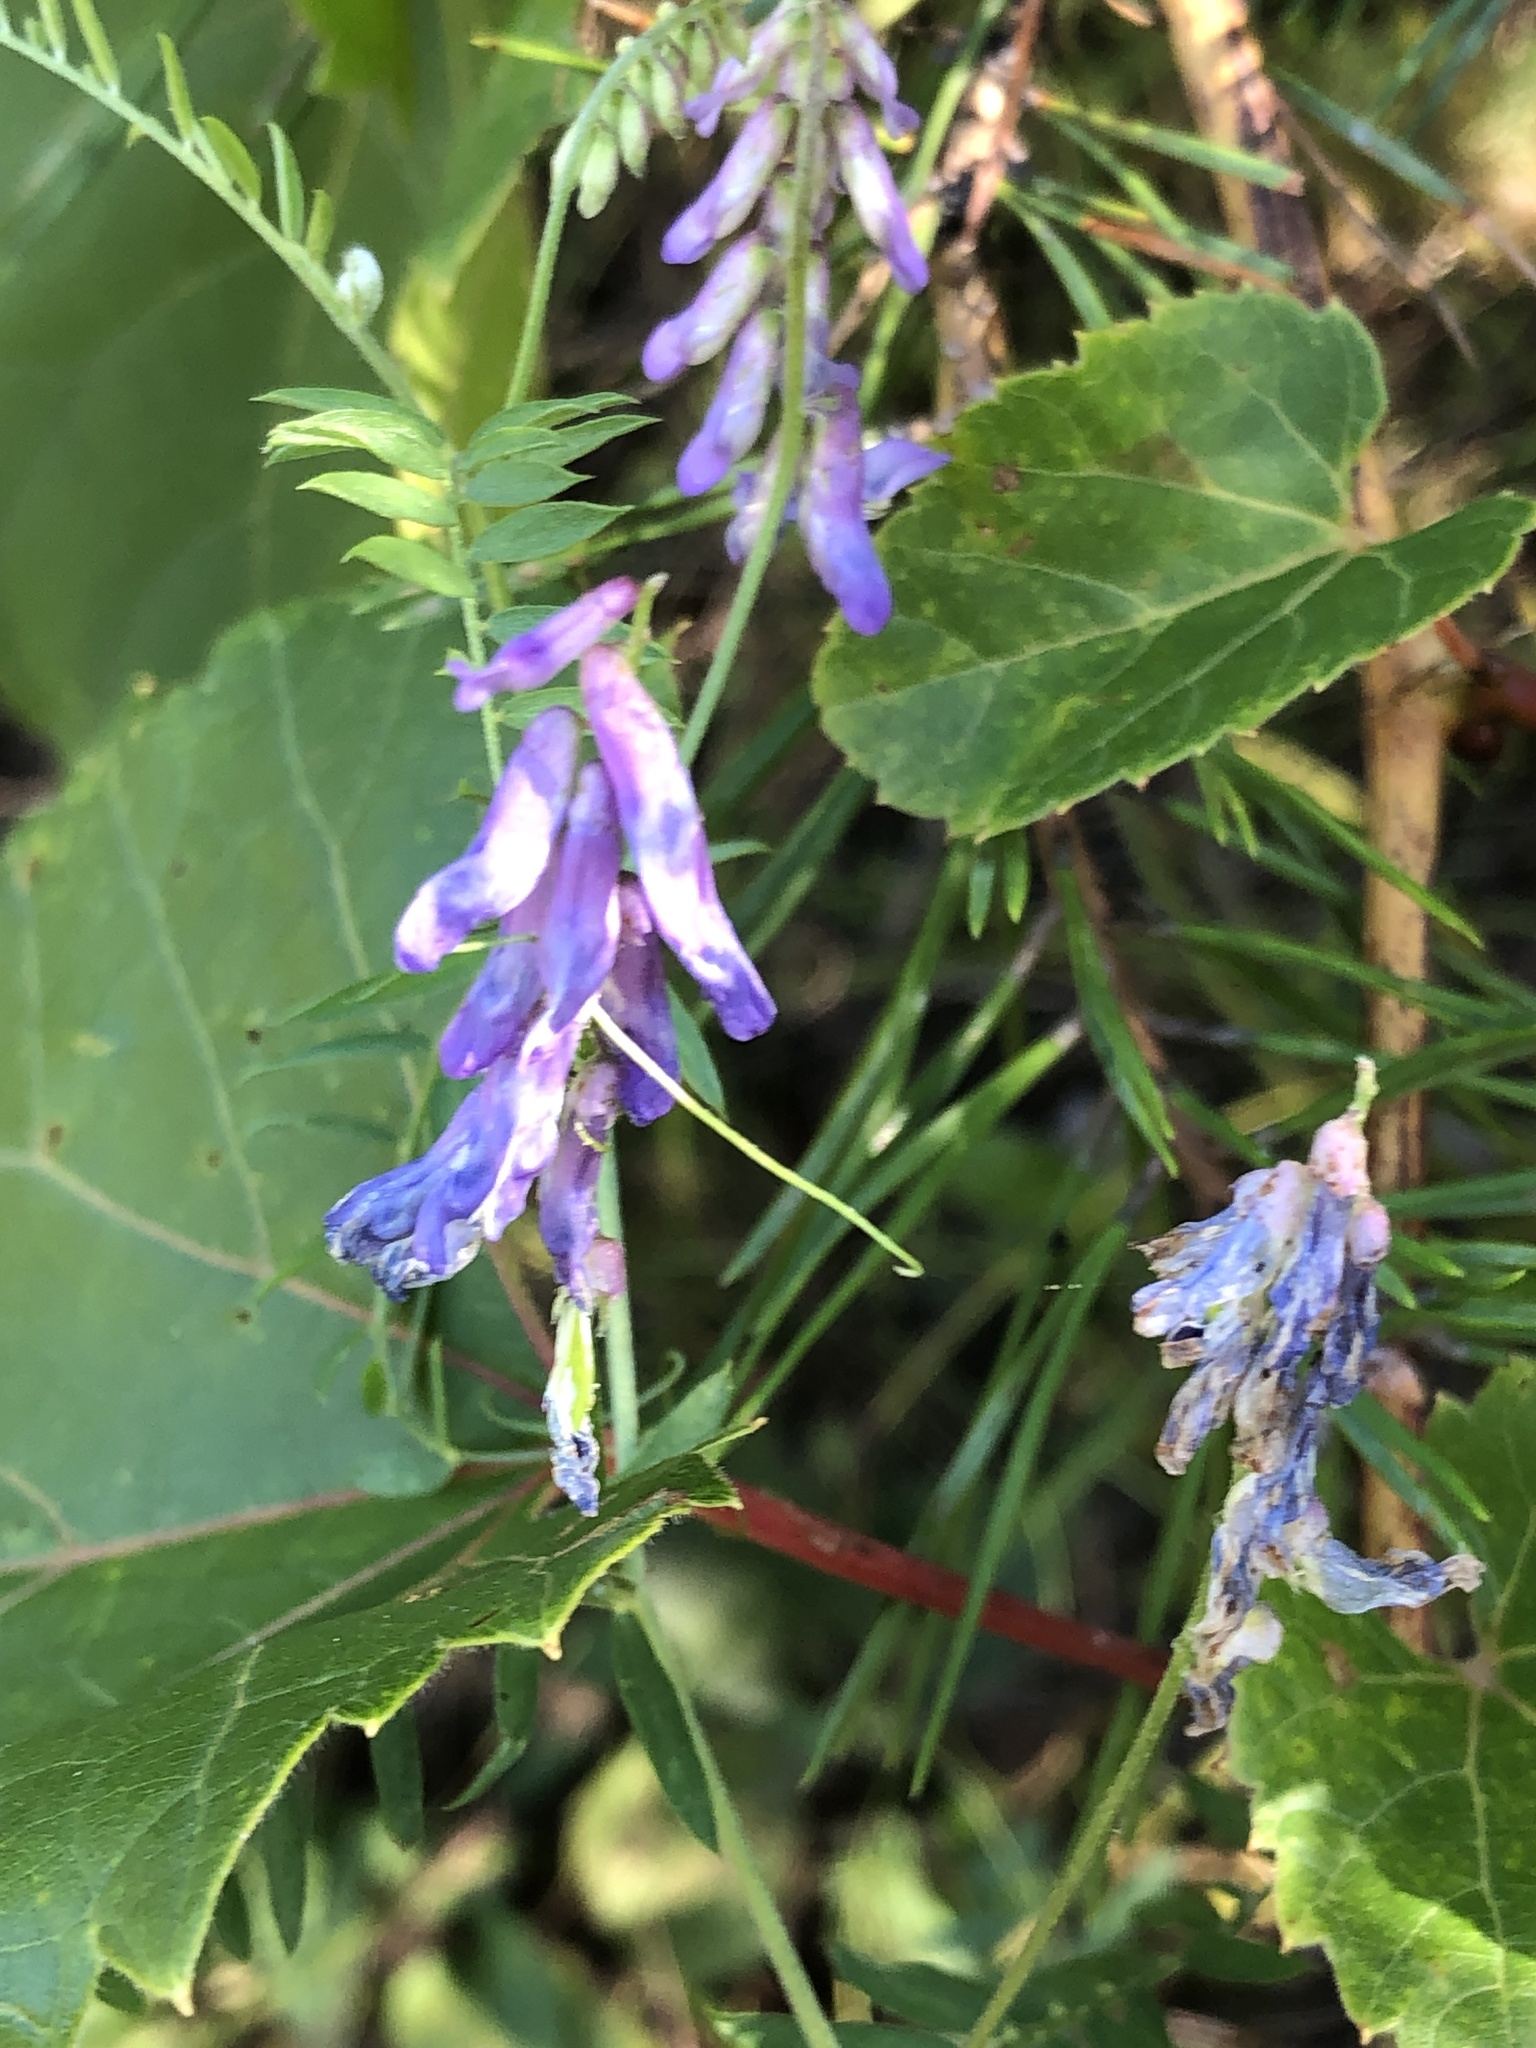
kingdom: Plantae
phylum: Tracheophyta
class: Magnoliopsida
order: Fabales
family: Fabaceae
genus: Vicia
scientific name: Vicia cracca
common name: Bird vetch
